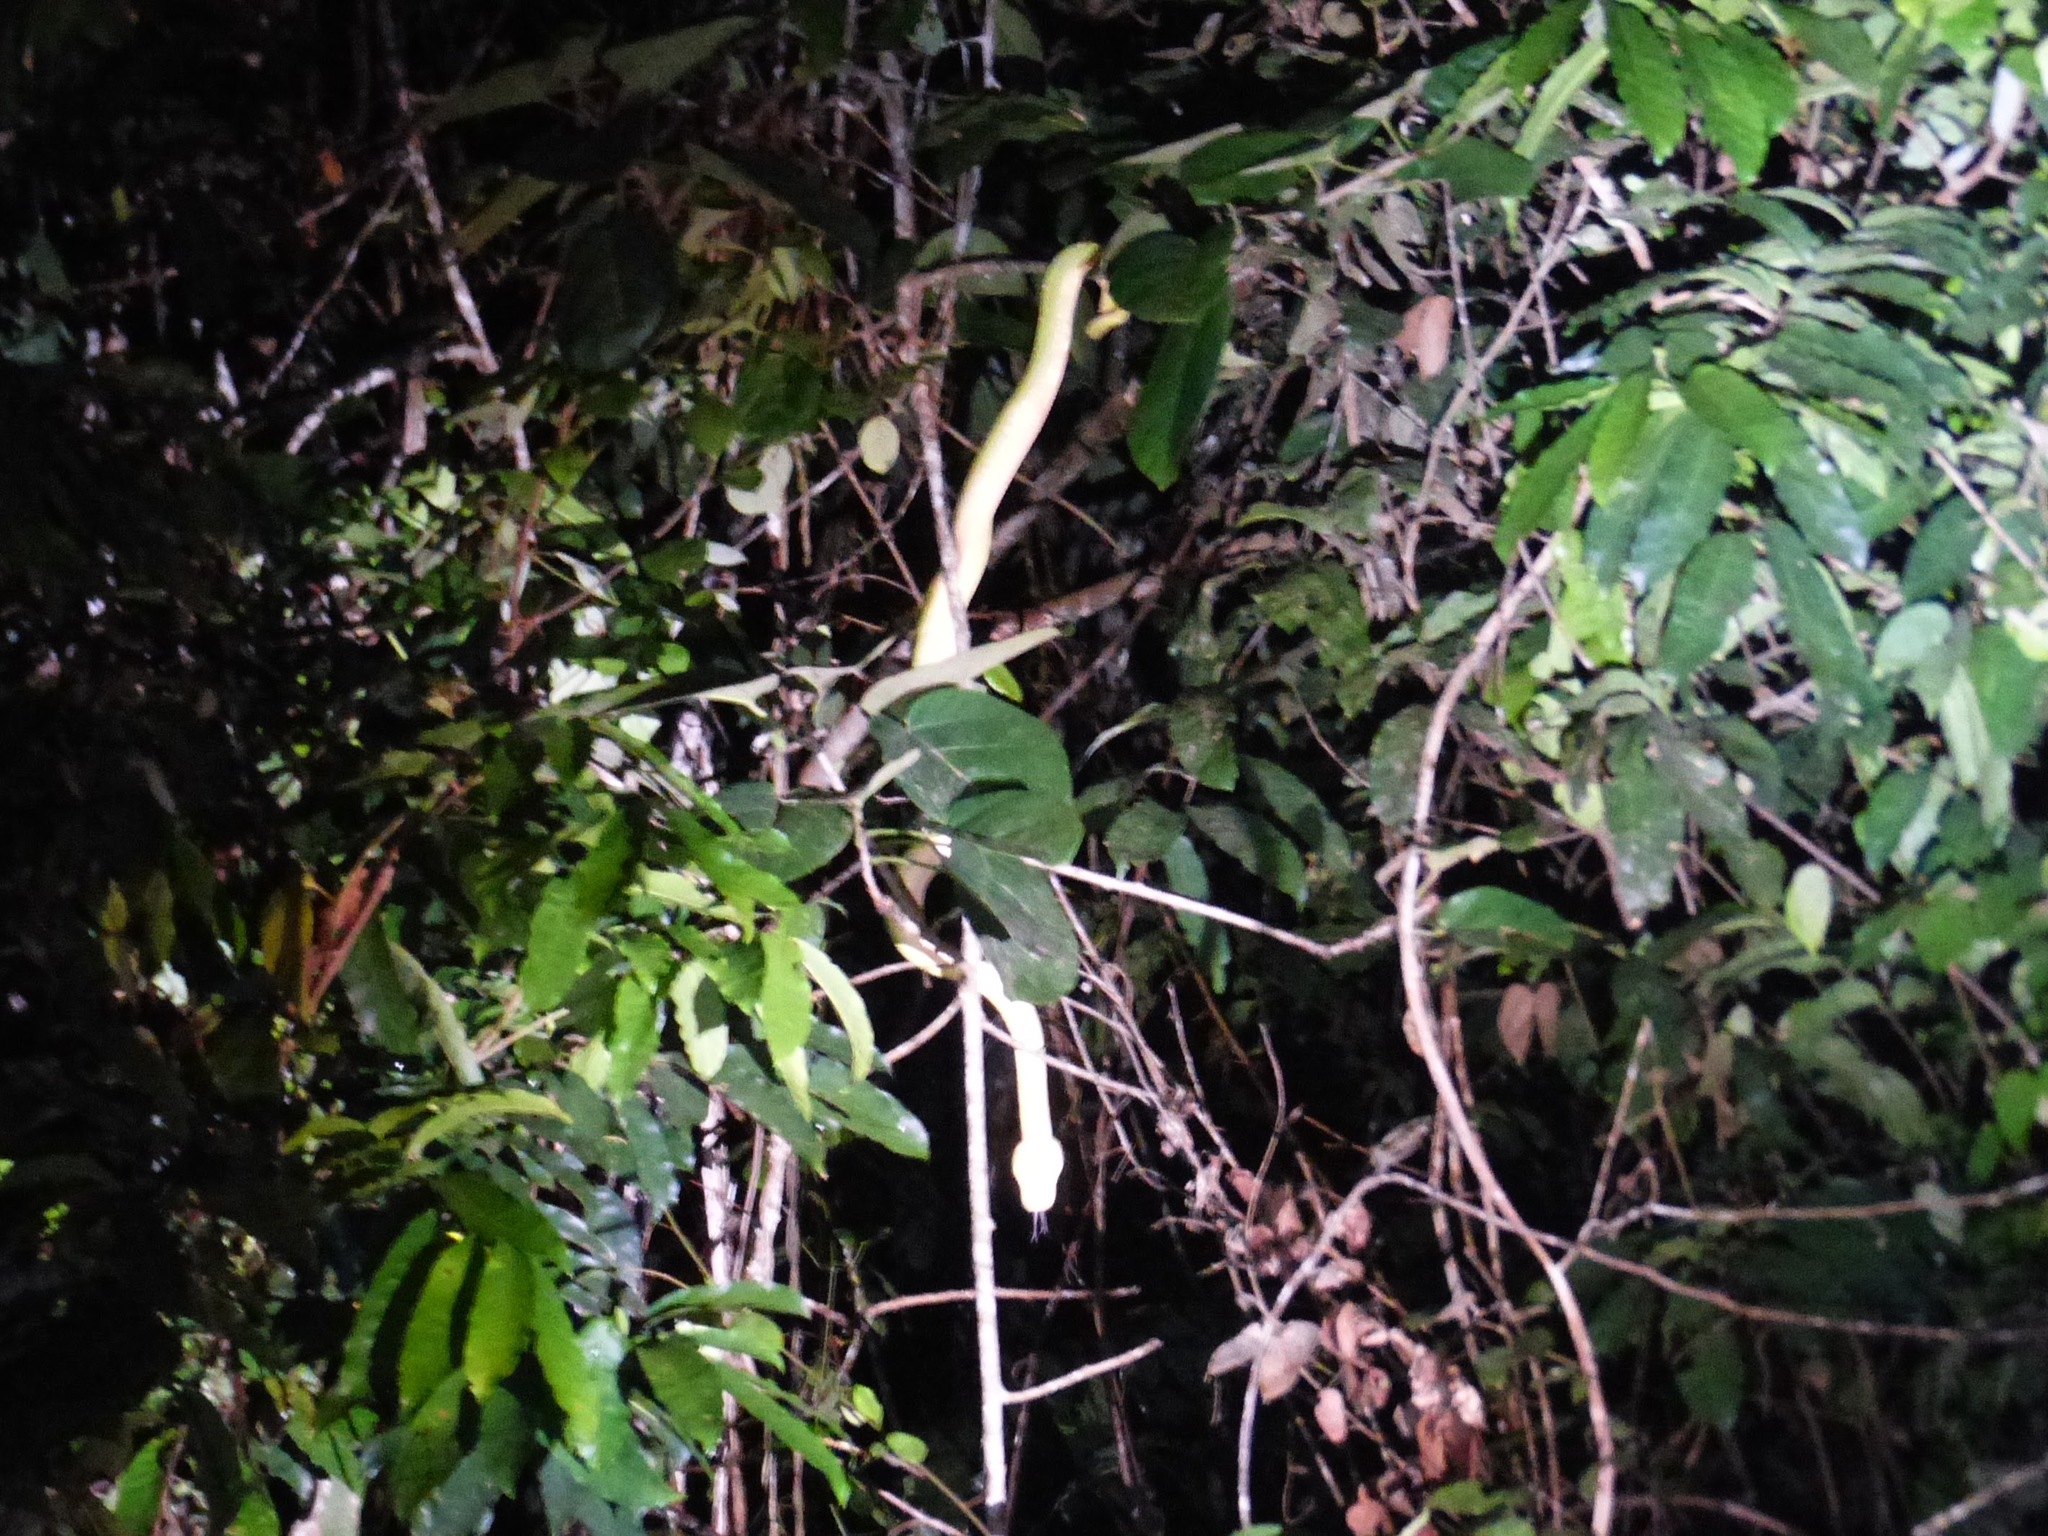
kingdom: Animalia
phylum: Chordata
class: Squamata
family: Boidae
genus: Corallus
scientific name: Corallus caninus
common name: Emerald tree boa
